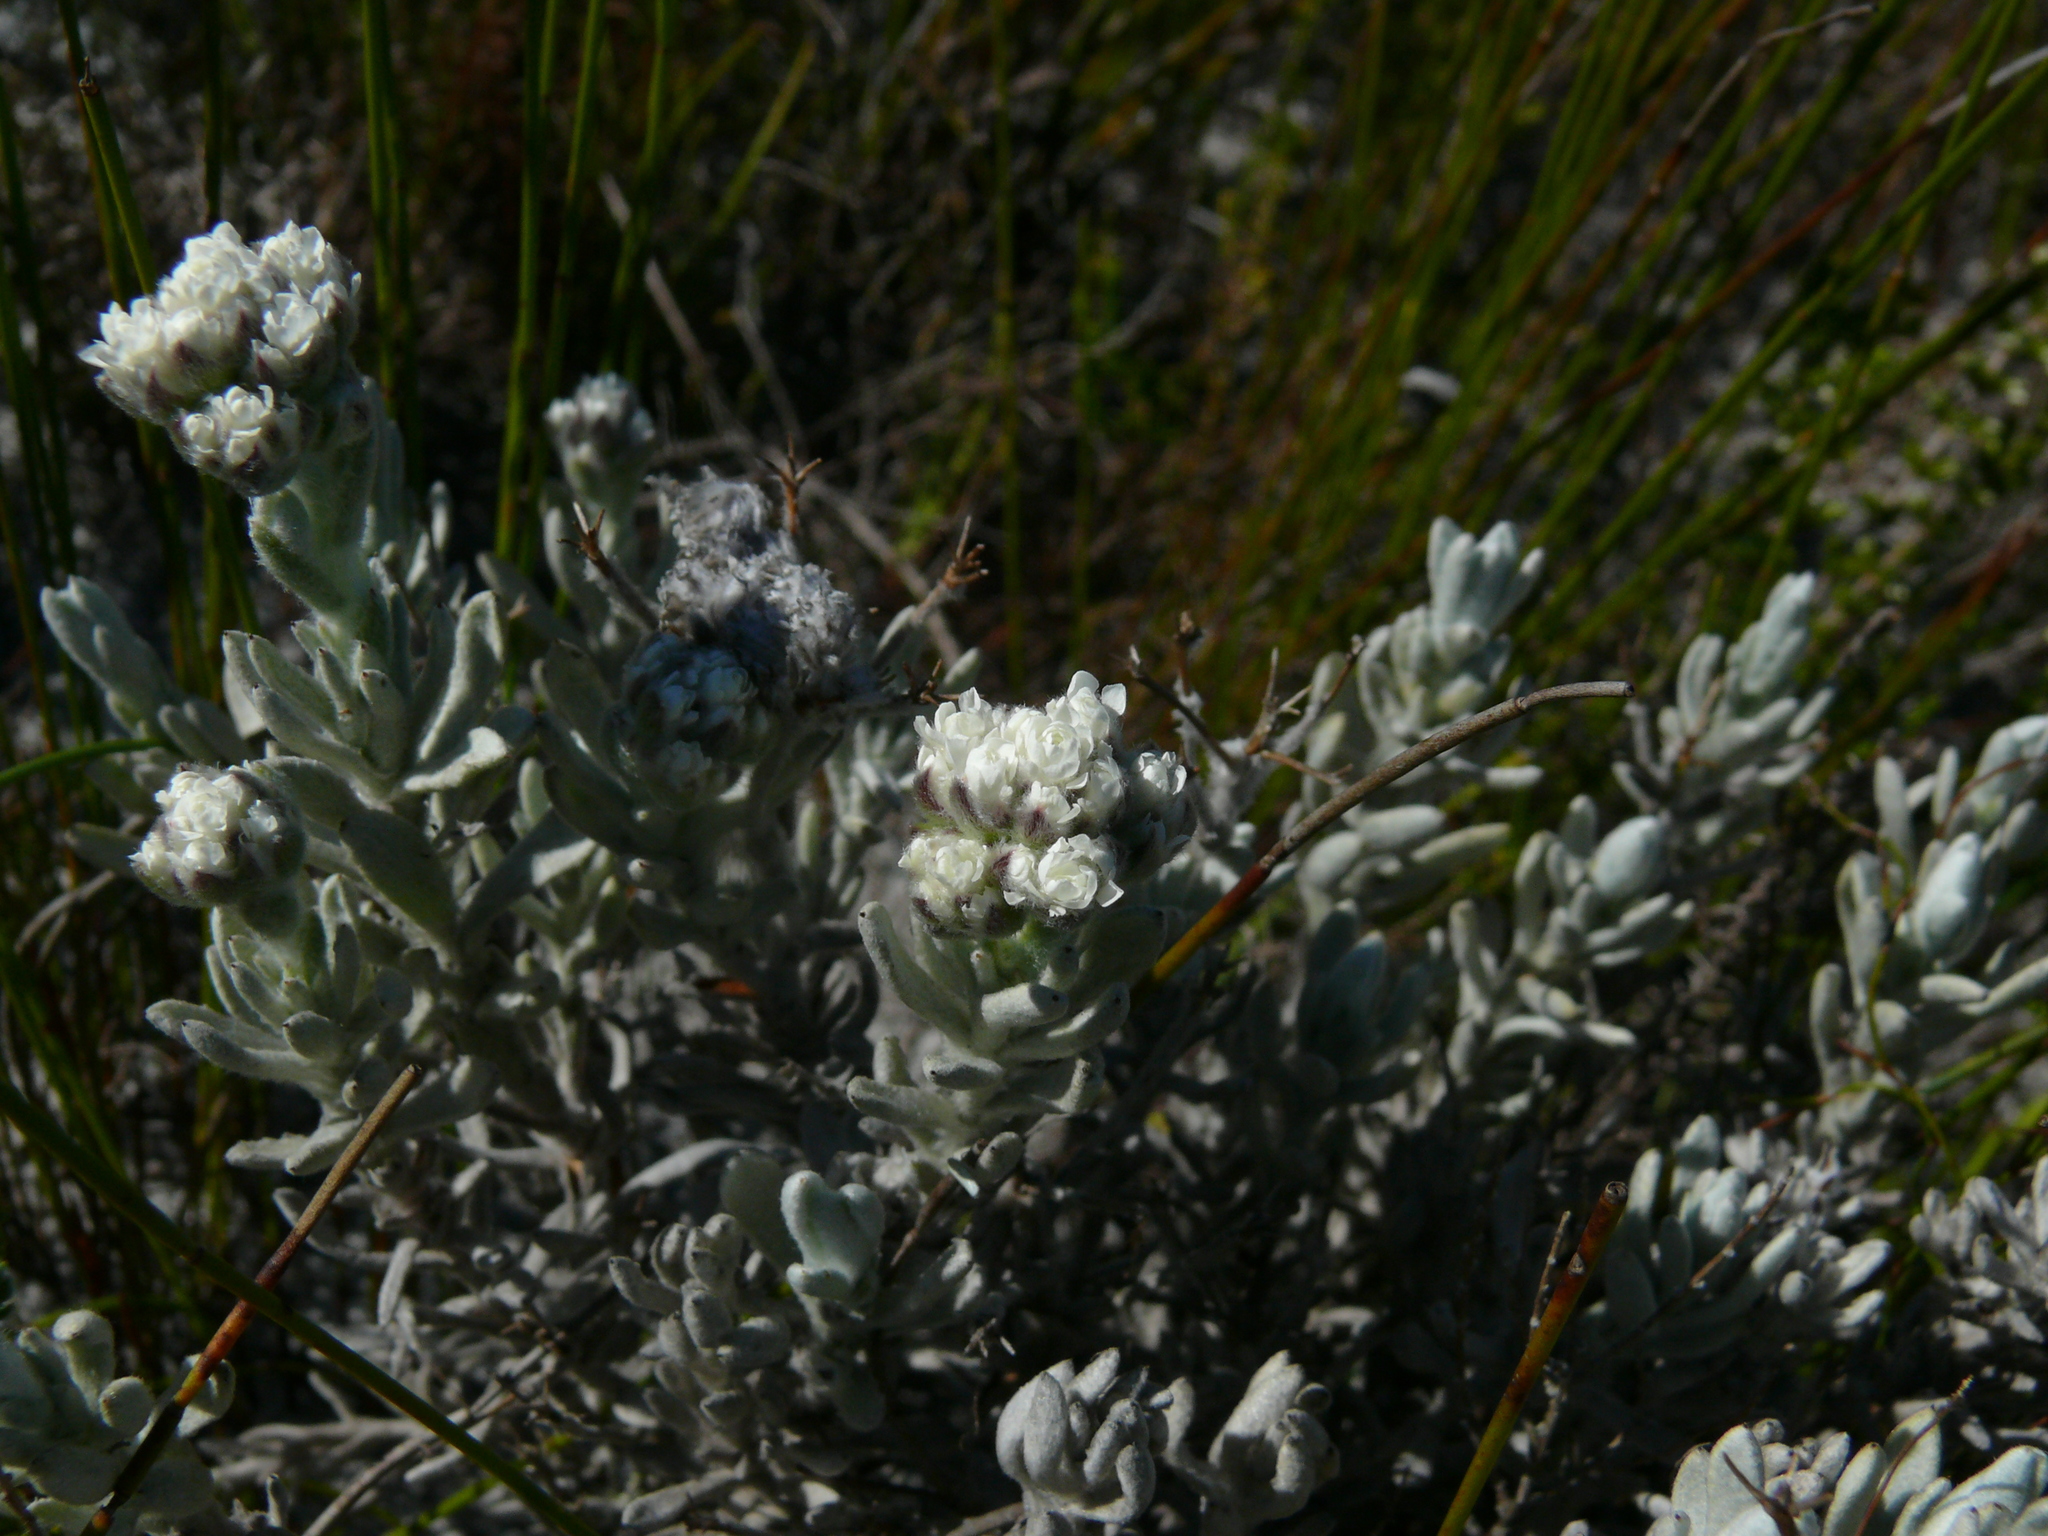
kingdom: Plantae
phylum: Tracheophyta
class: Magnoliopsida
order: Asterales
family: Asteraceae
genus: Petalacte
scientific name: Petalacte coronata
